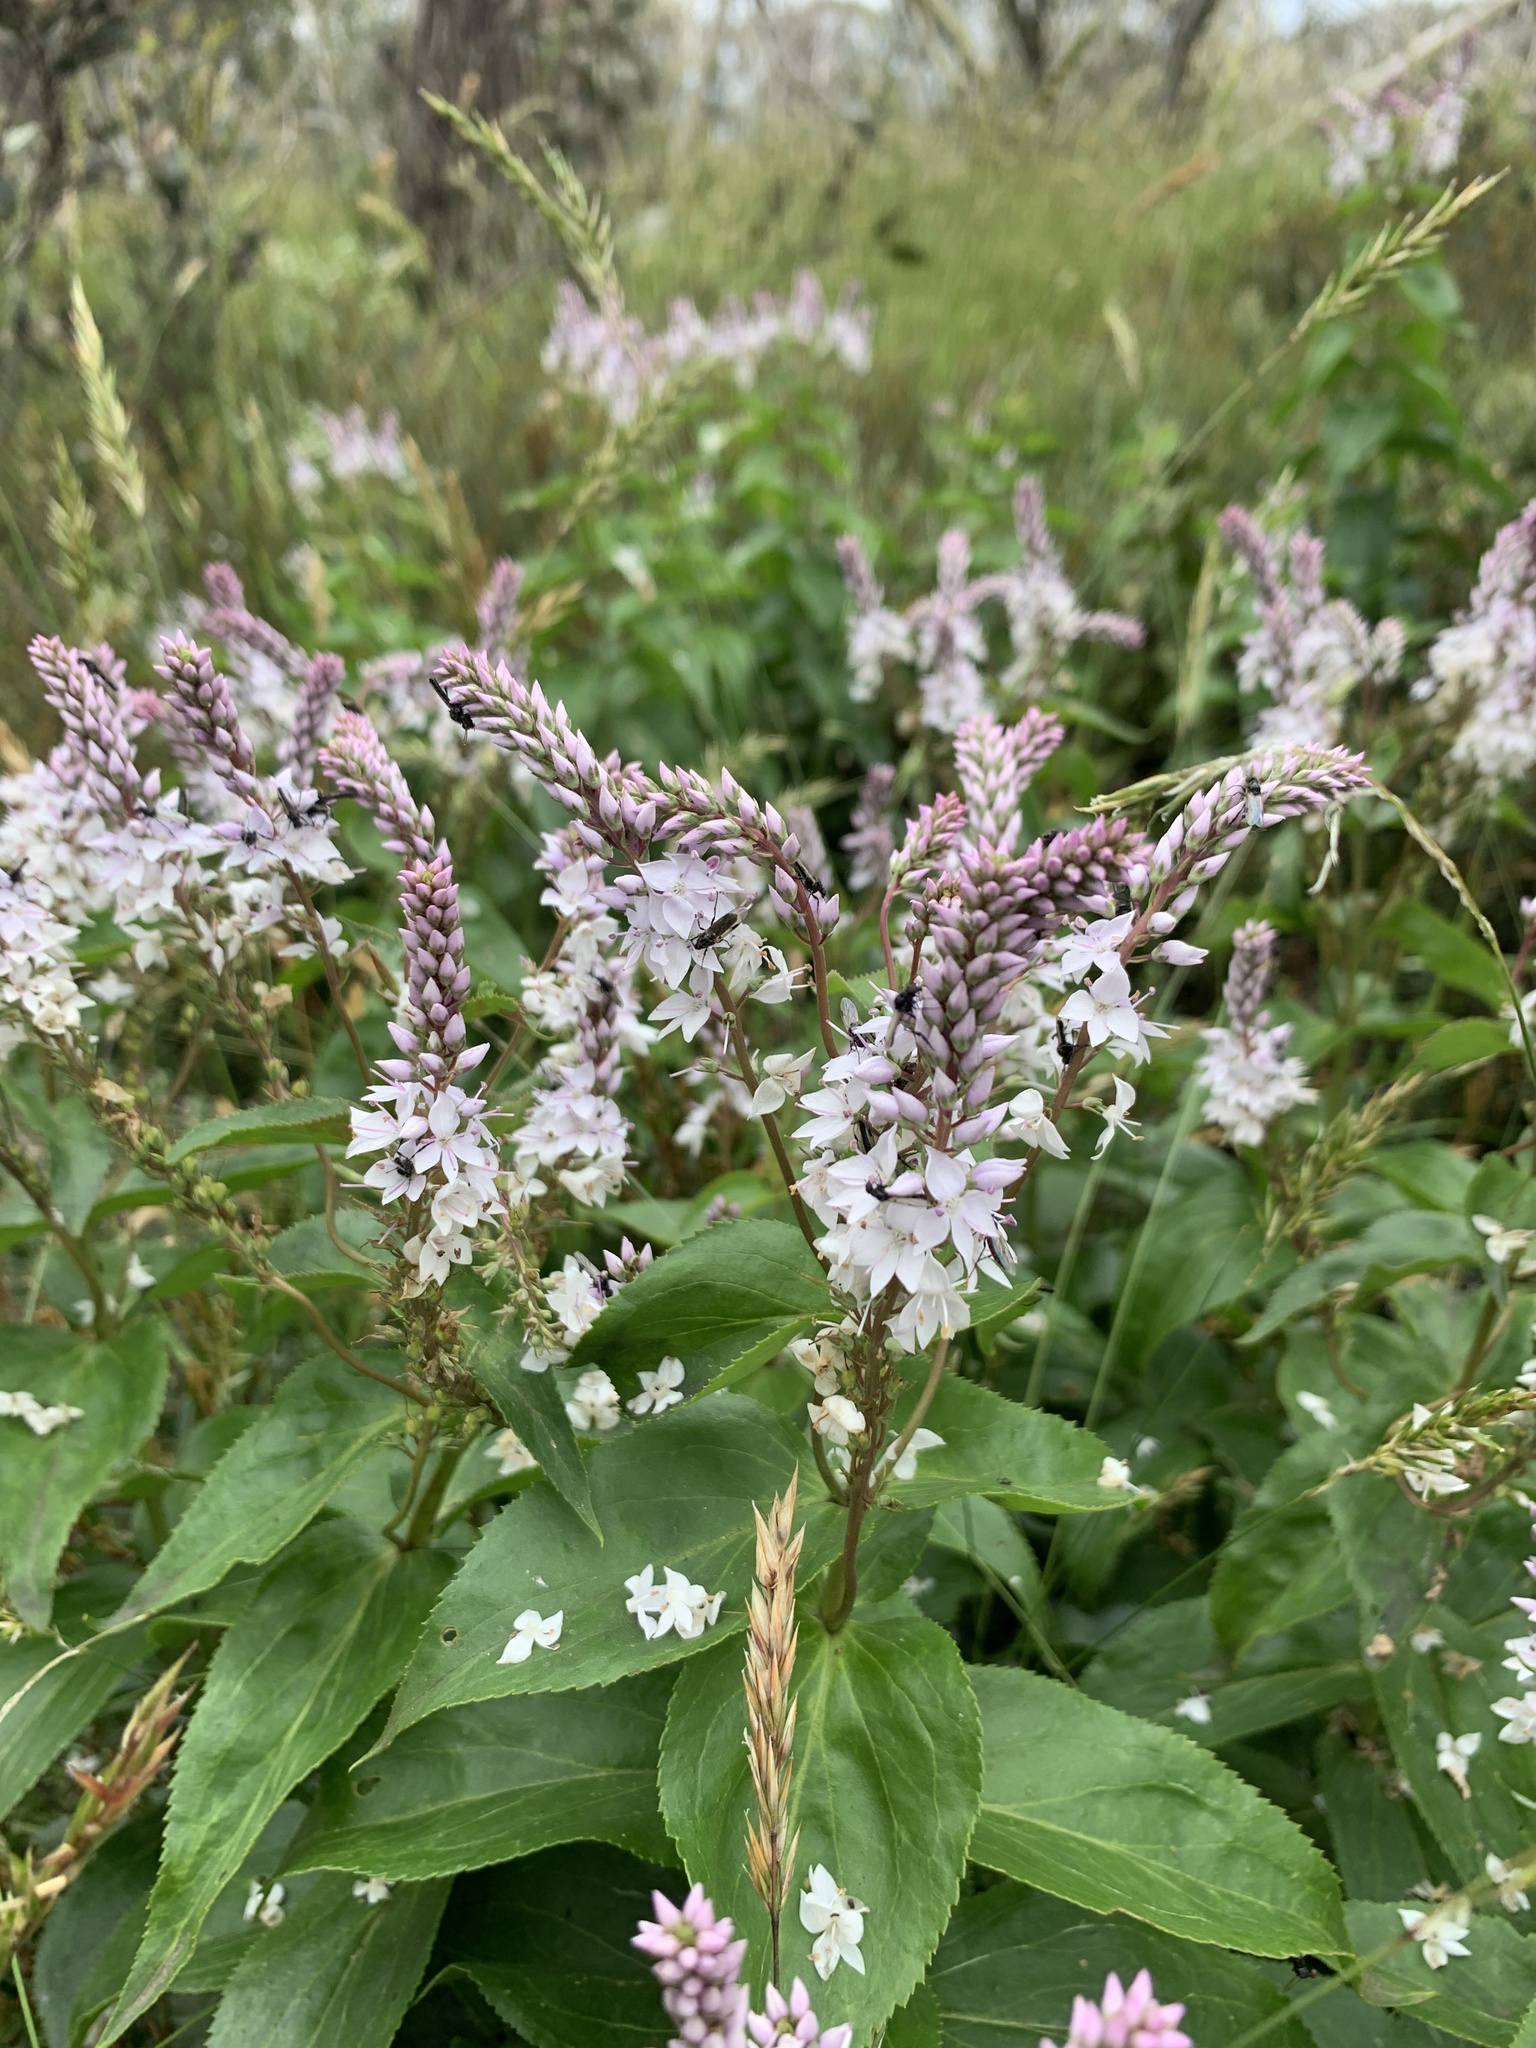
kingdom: Plantae
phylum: Tracheophyta
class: Magnoliopsida
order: Lamiales
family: Plantaginaceae
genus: Veronica
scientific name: Veronica derwentiana
